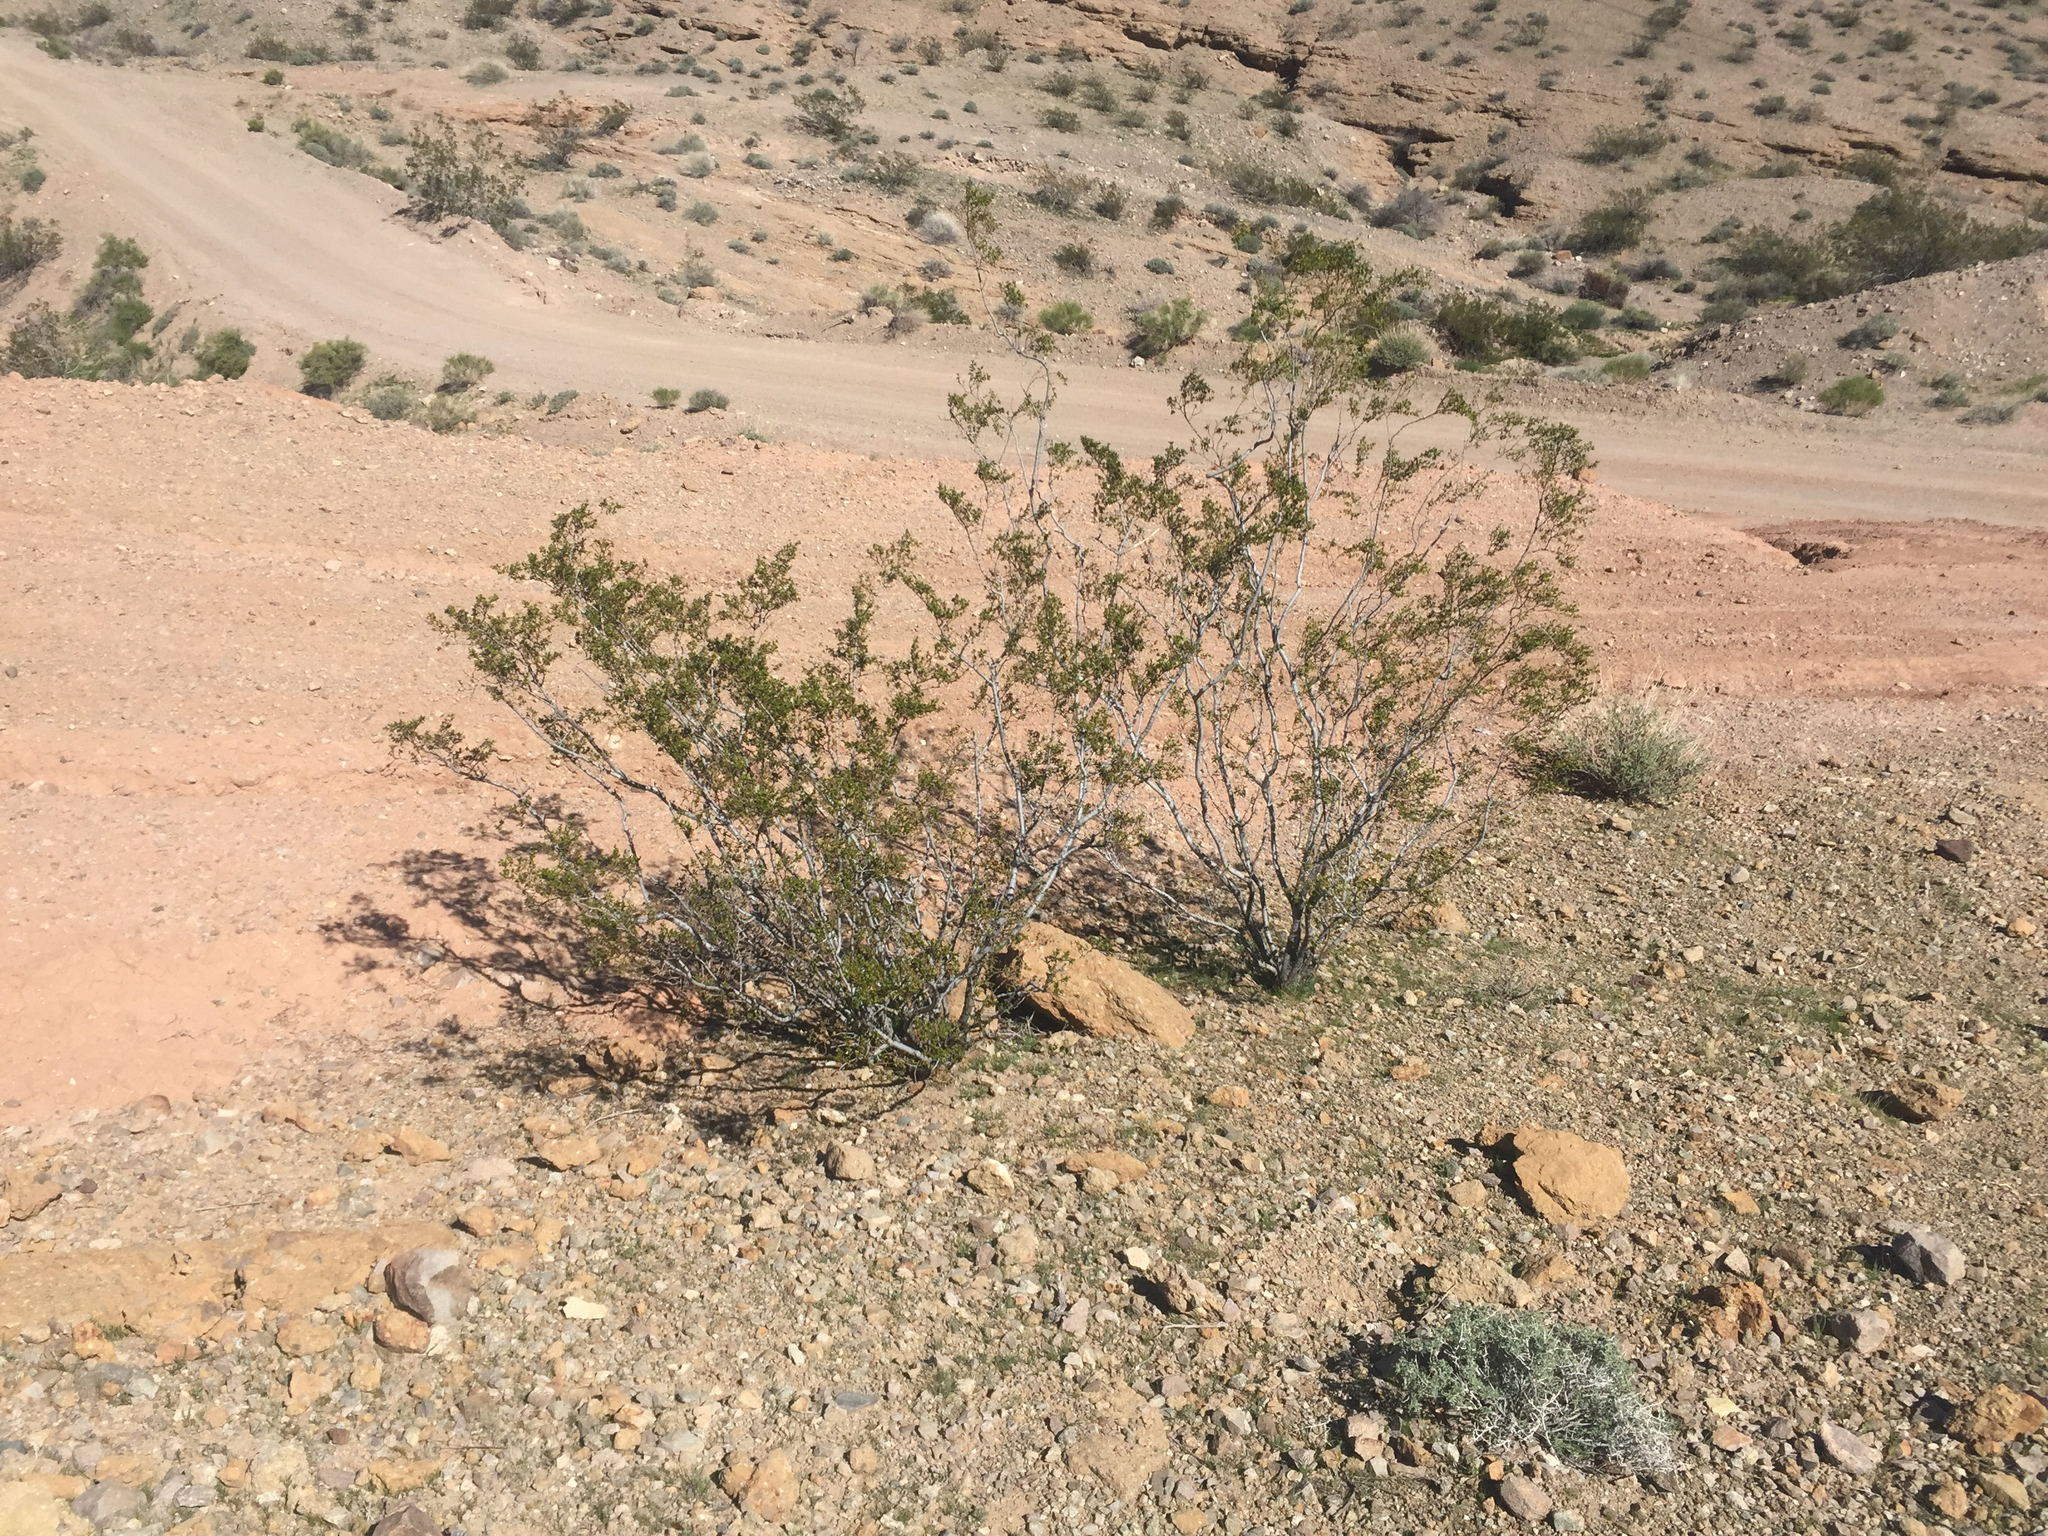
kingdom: Plantae
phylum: Tracheophyta
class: Magnoliopsida
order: Zygophyllales
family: Zygophyllaceae
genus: Larrea
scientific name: Larrea tridentata
